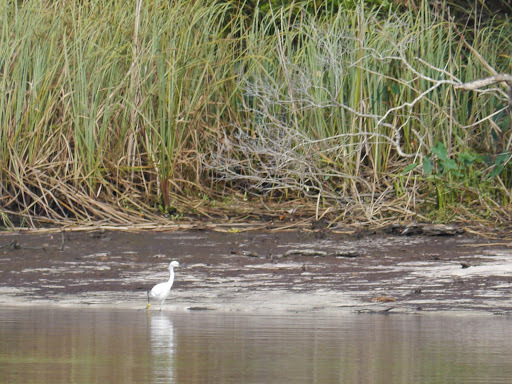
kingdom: Animalia
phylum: Chordata
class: Aves
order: Pelecaniformes
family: Ardeidae
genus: Egretta
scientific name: Egretta thula
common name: Snowy egret
